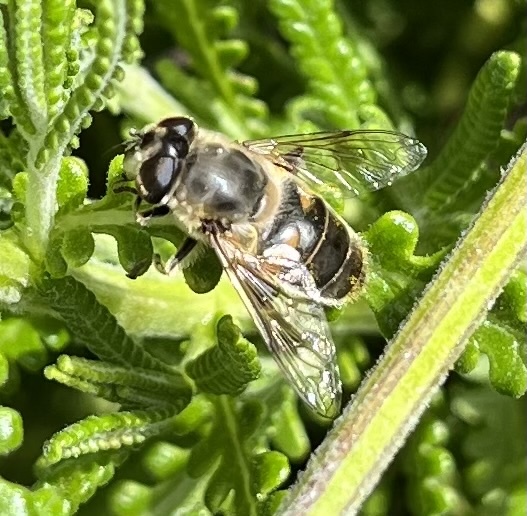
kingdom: Animalia
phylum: Arthropoda
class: Insecta
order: Diptera
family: Syrphidae
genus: Eristalis
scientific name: Eristalis tenax
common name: Drone fly
